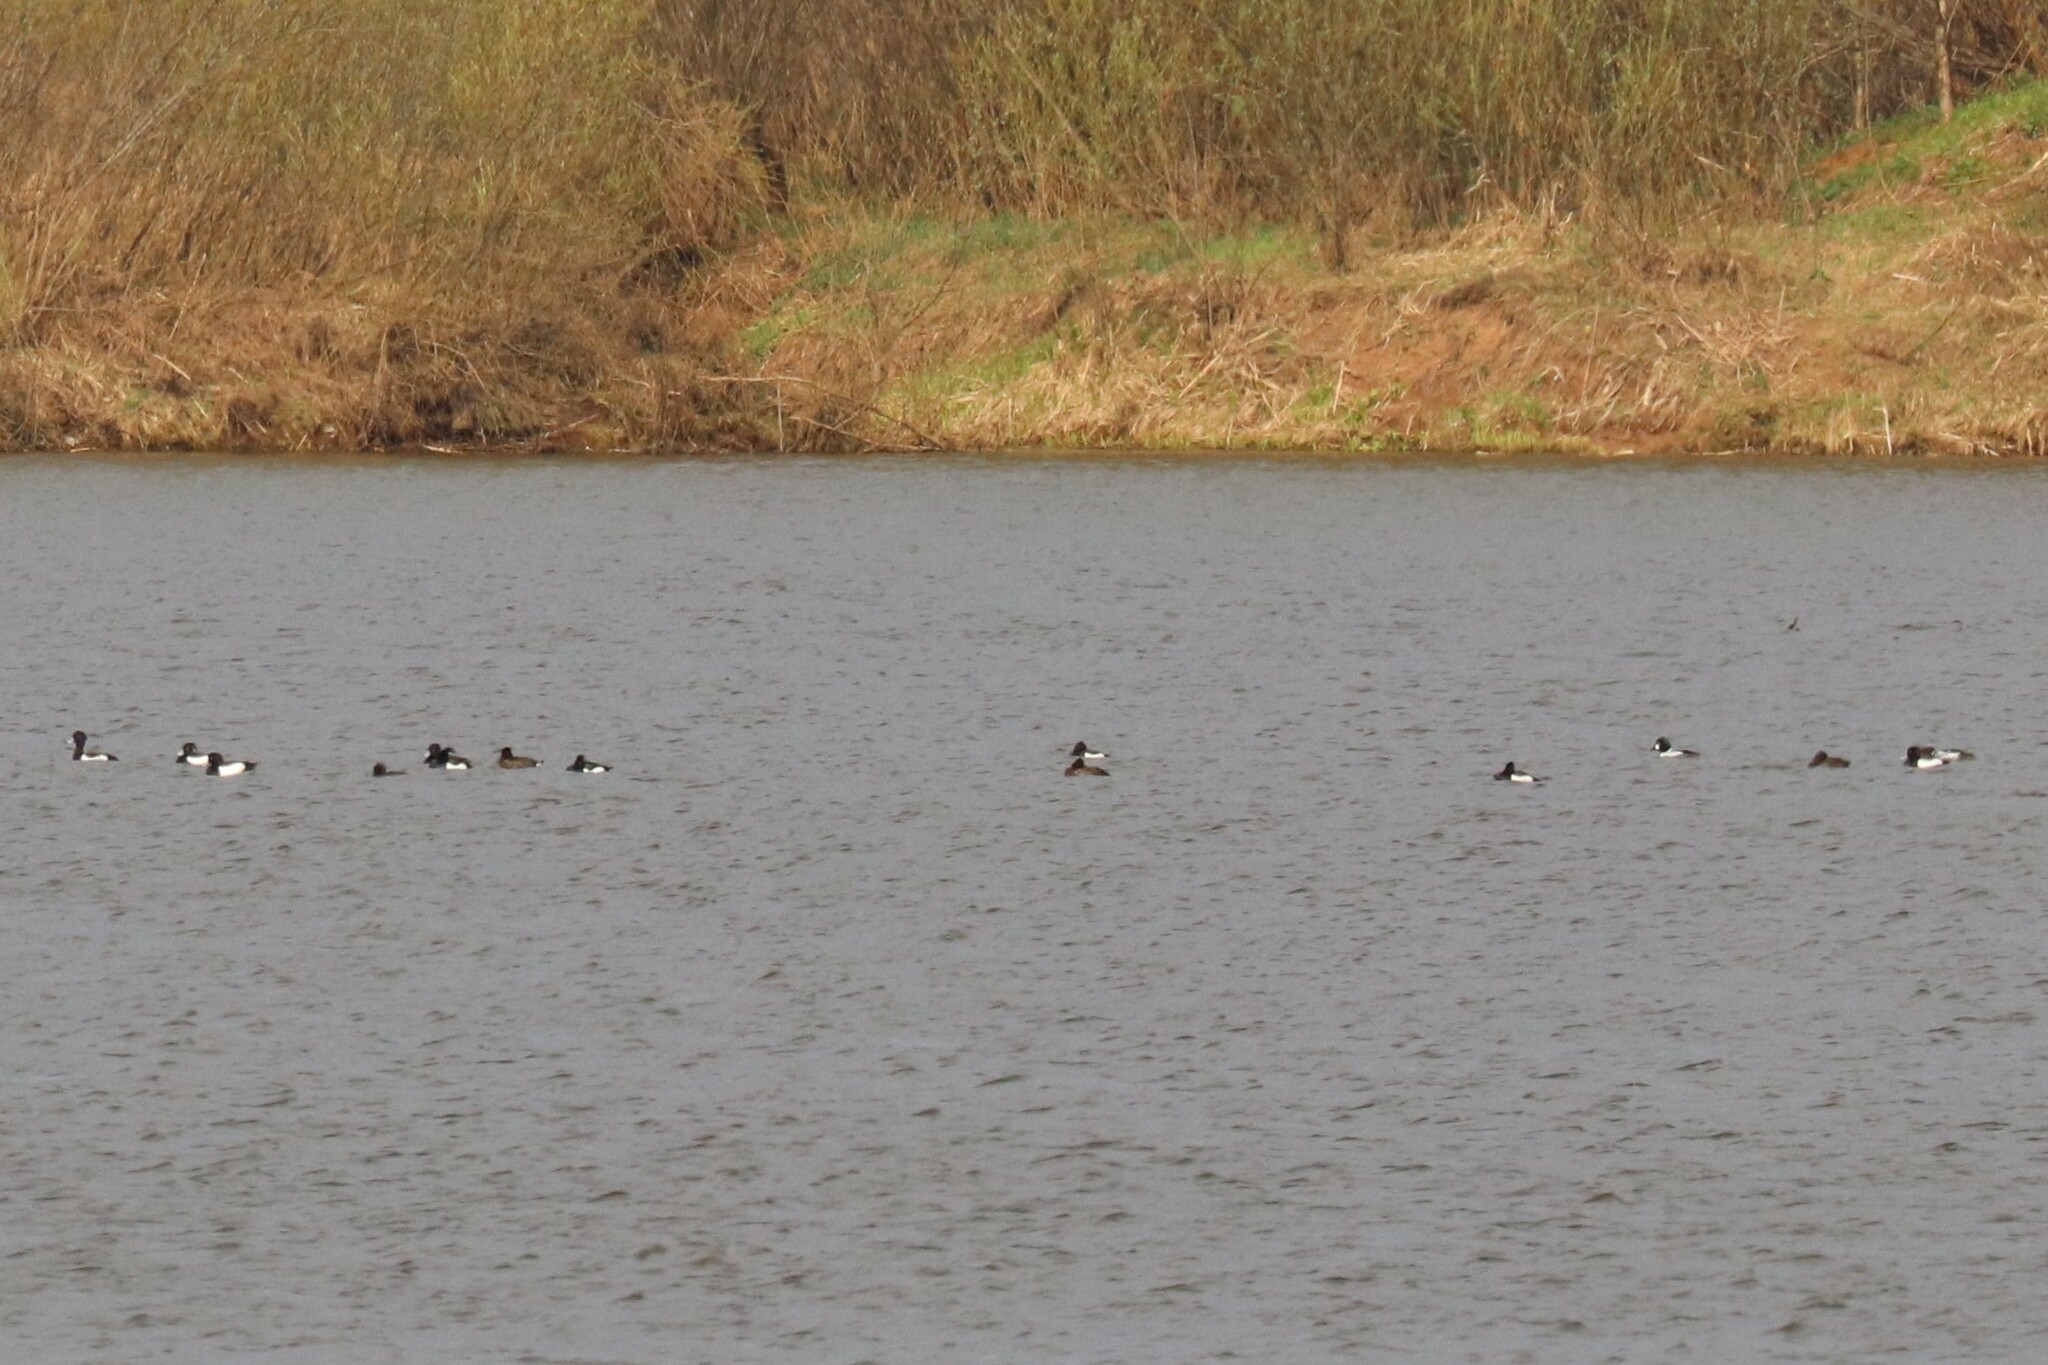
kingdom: Animalia
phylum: Chordata
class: Aves
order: Anseriformes
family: Anatidae
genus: Aythya
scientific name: Aythya fuligula
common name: Tufted duck
